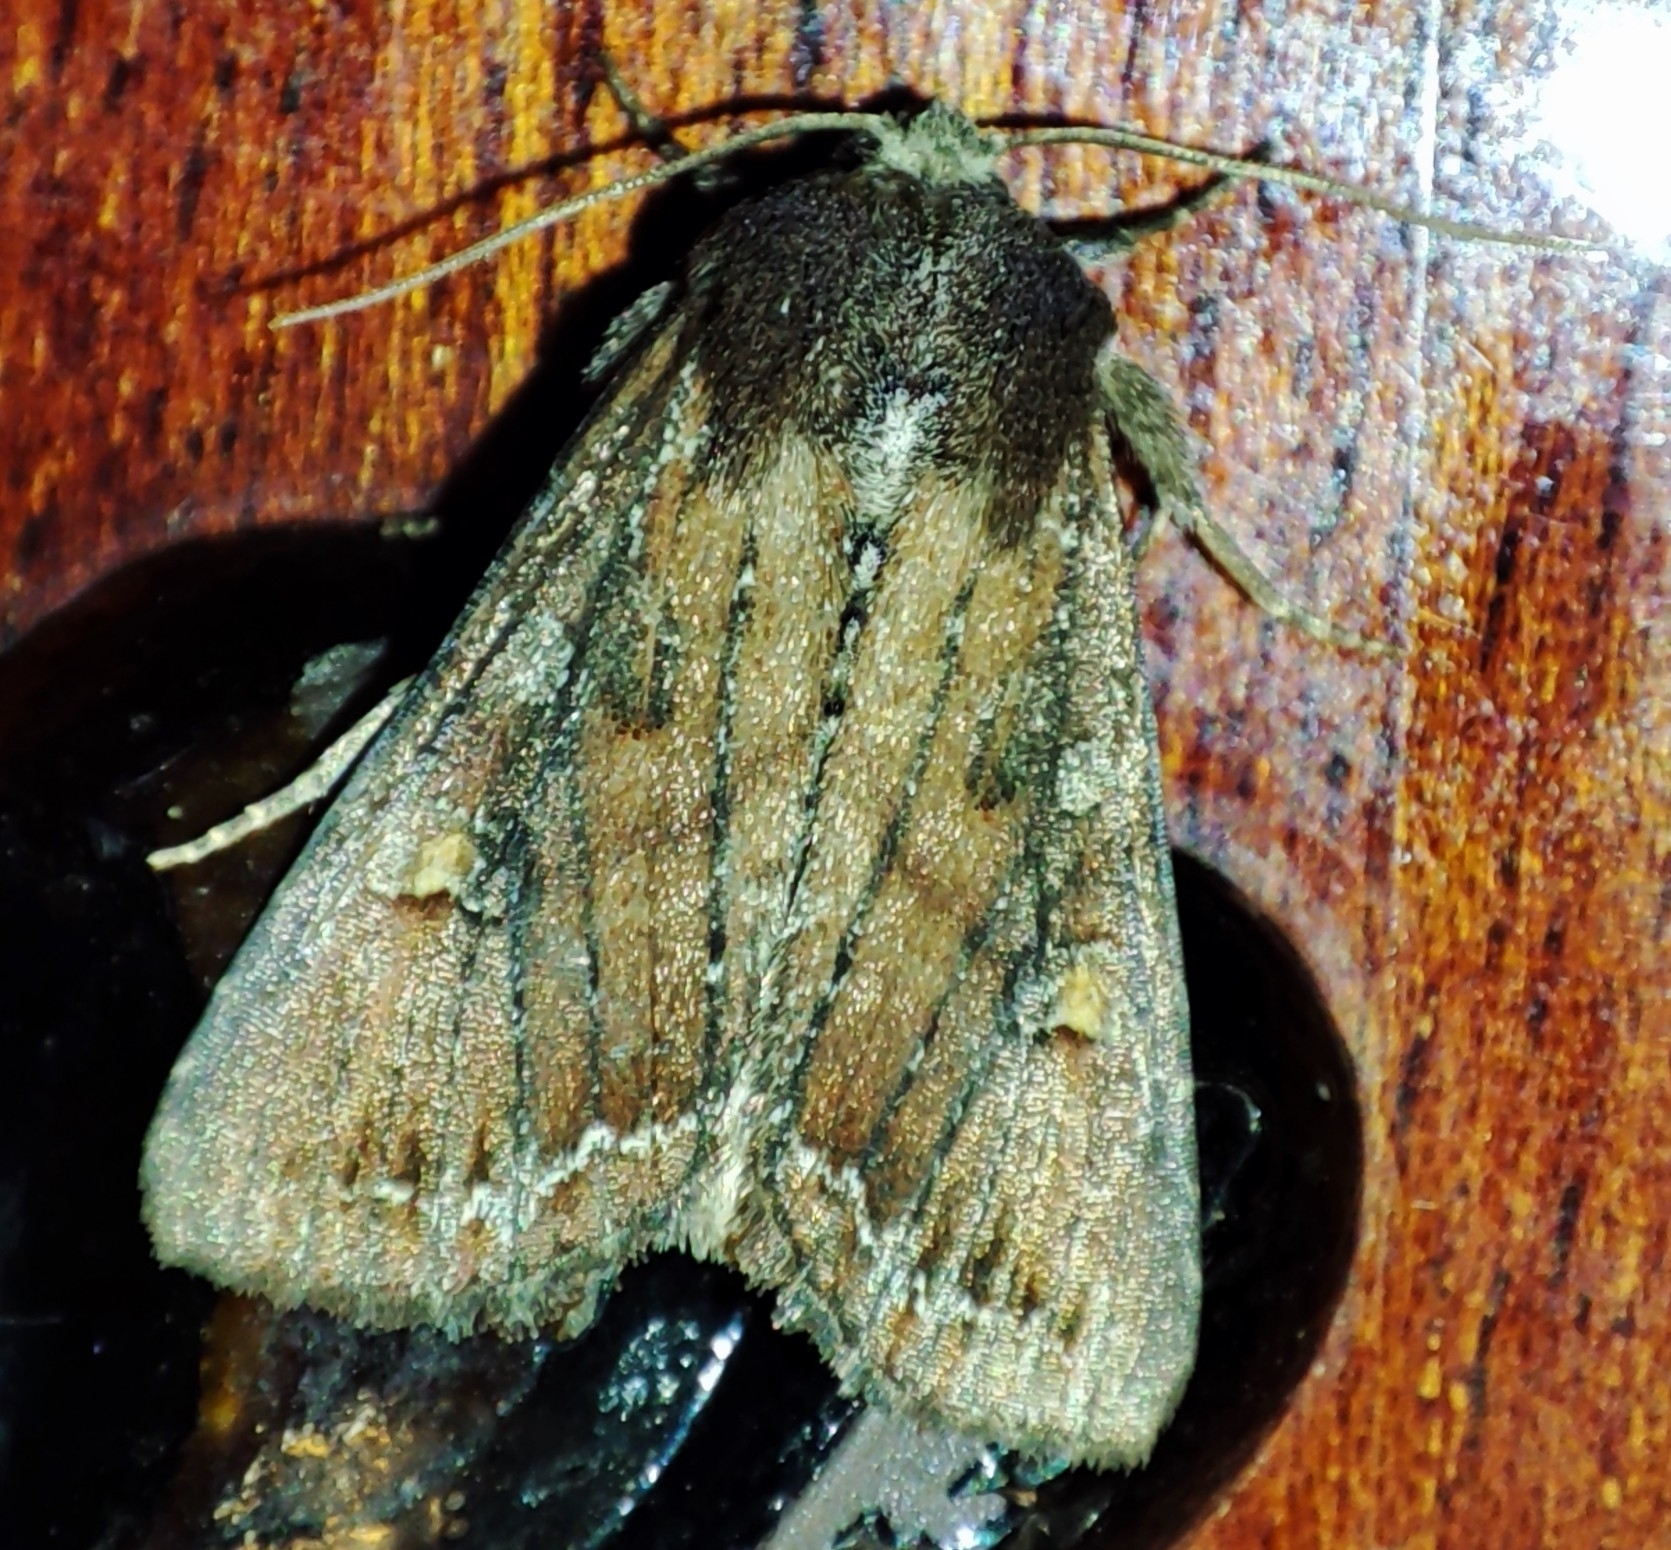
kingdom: Animalia
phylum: Arthropoda
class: Insecta
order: Lepidoptera
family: Noctuidae
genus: Lacanobia
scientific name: Lacanobia oleracea
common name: Bright-line brown-eye
